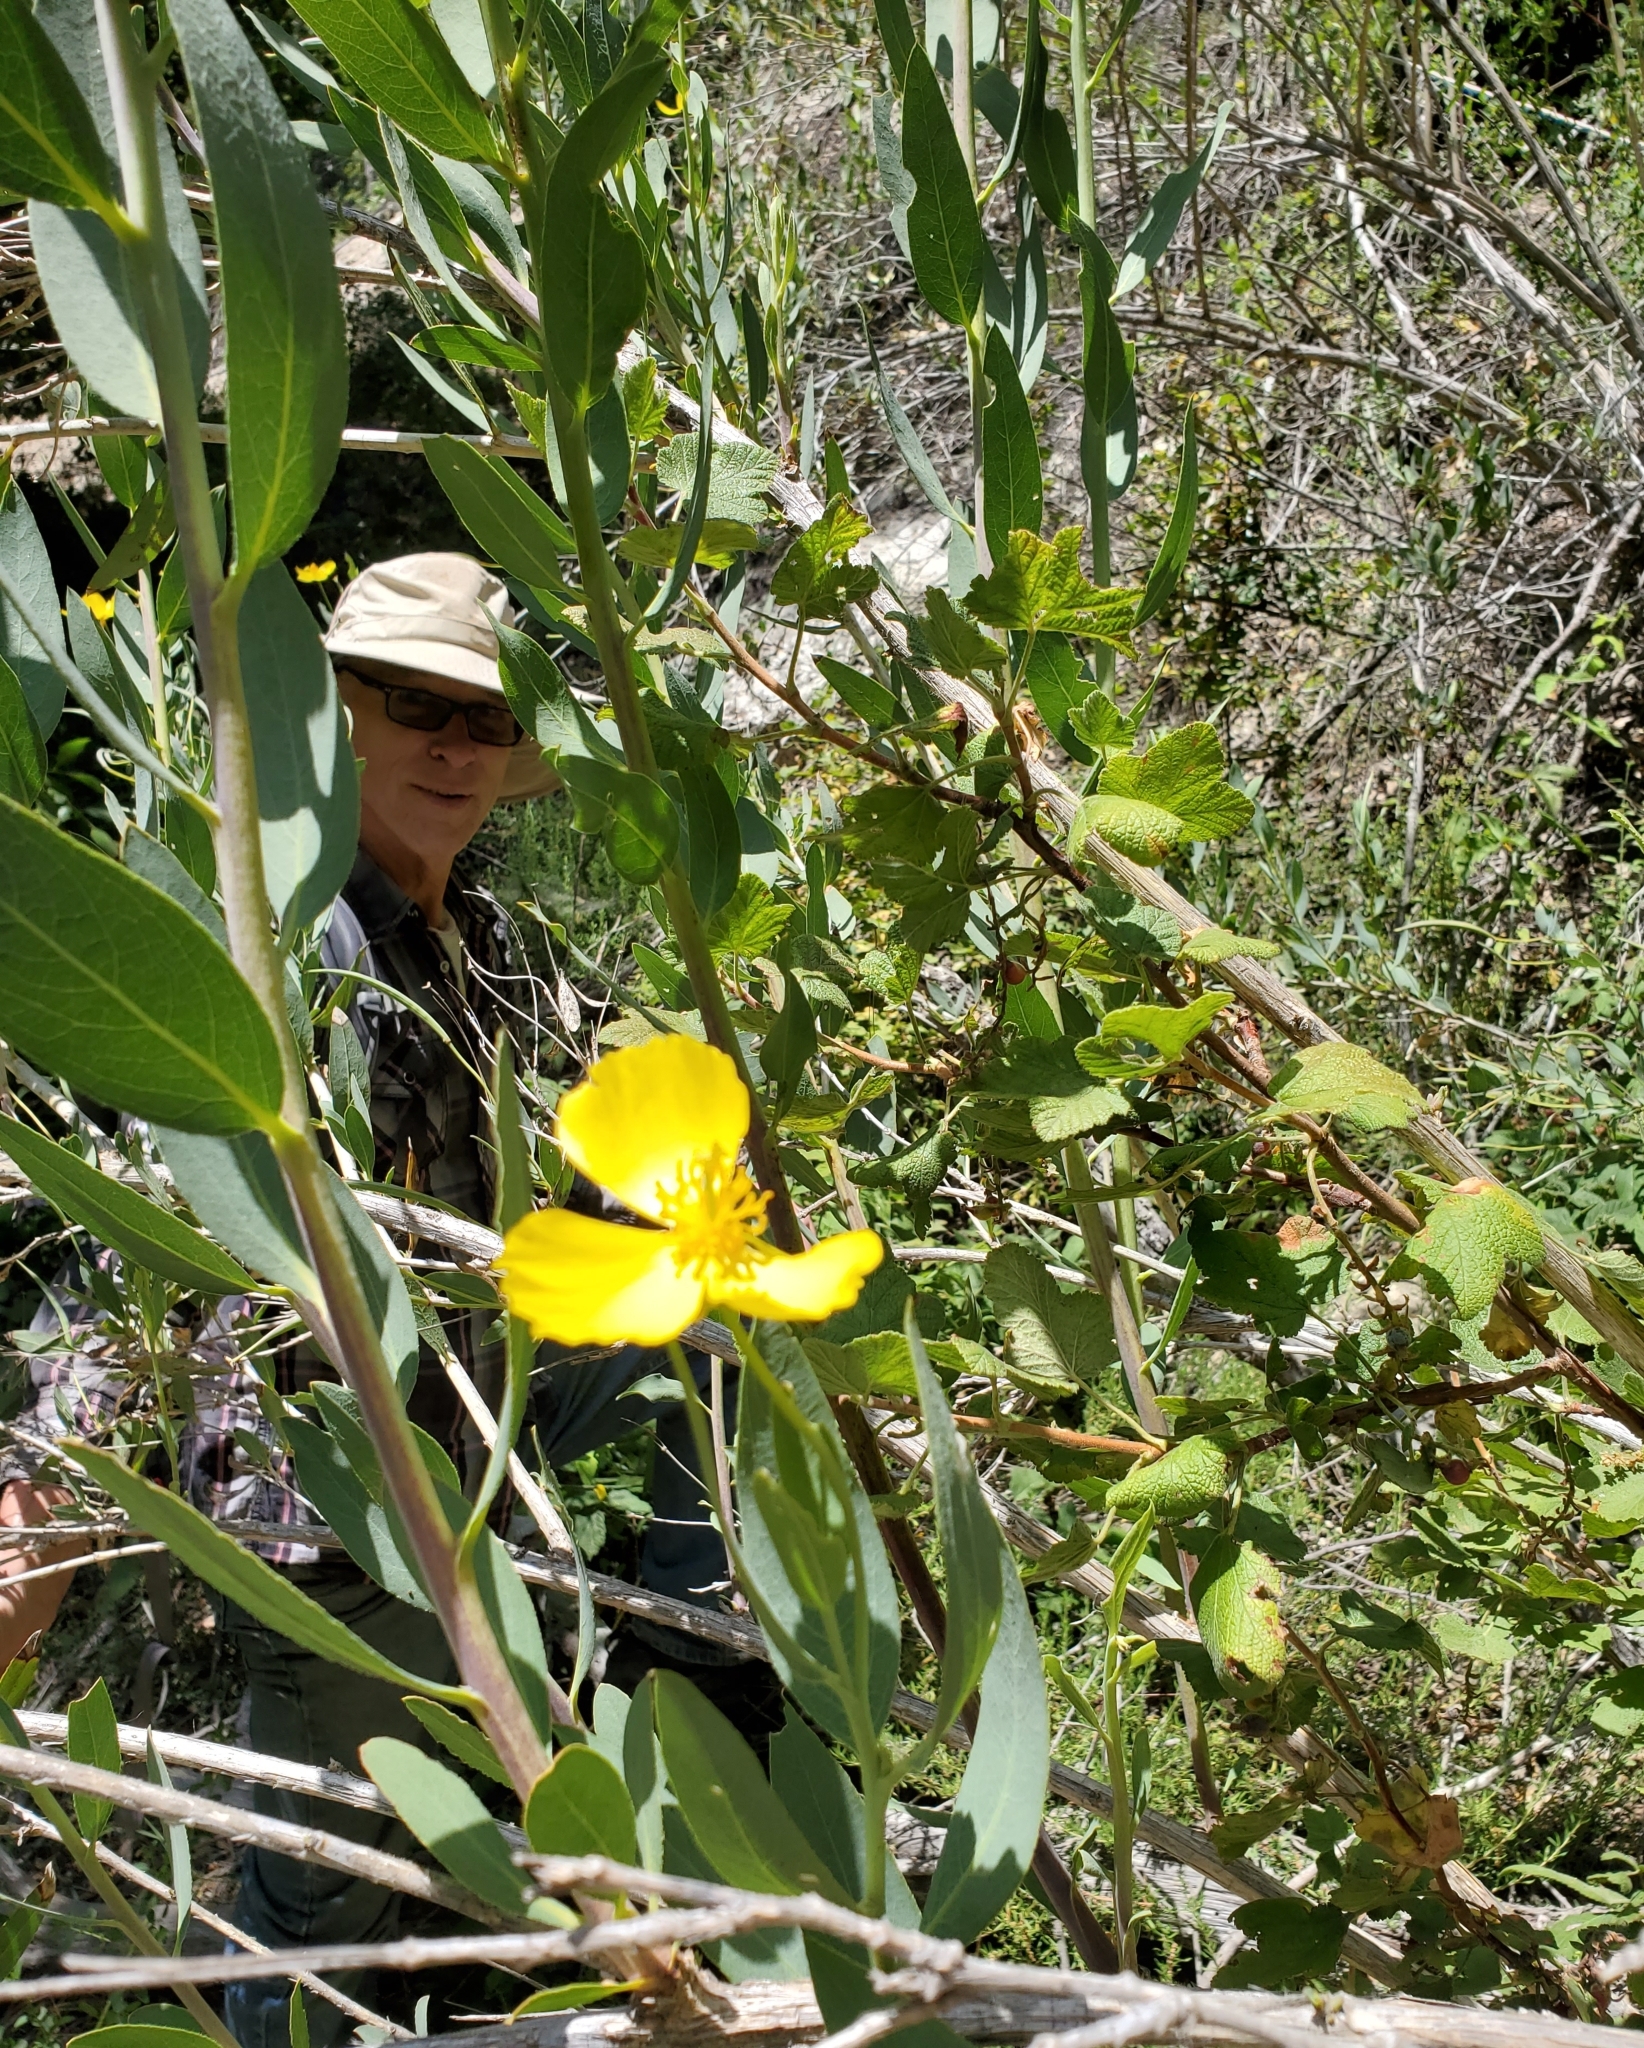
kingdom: Plantae
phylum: Tracheophyta
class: Magnoliopsida
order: Ranunculales
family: Papaveraceae
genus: Dendromecon
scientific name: Dendromecon rigida
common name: Tree poppy
